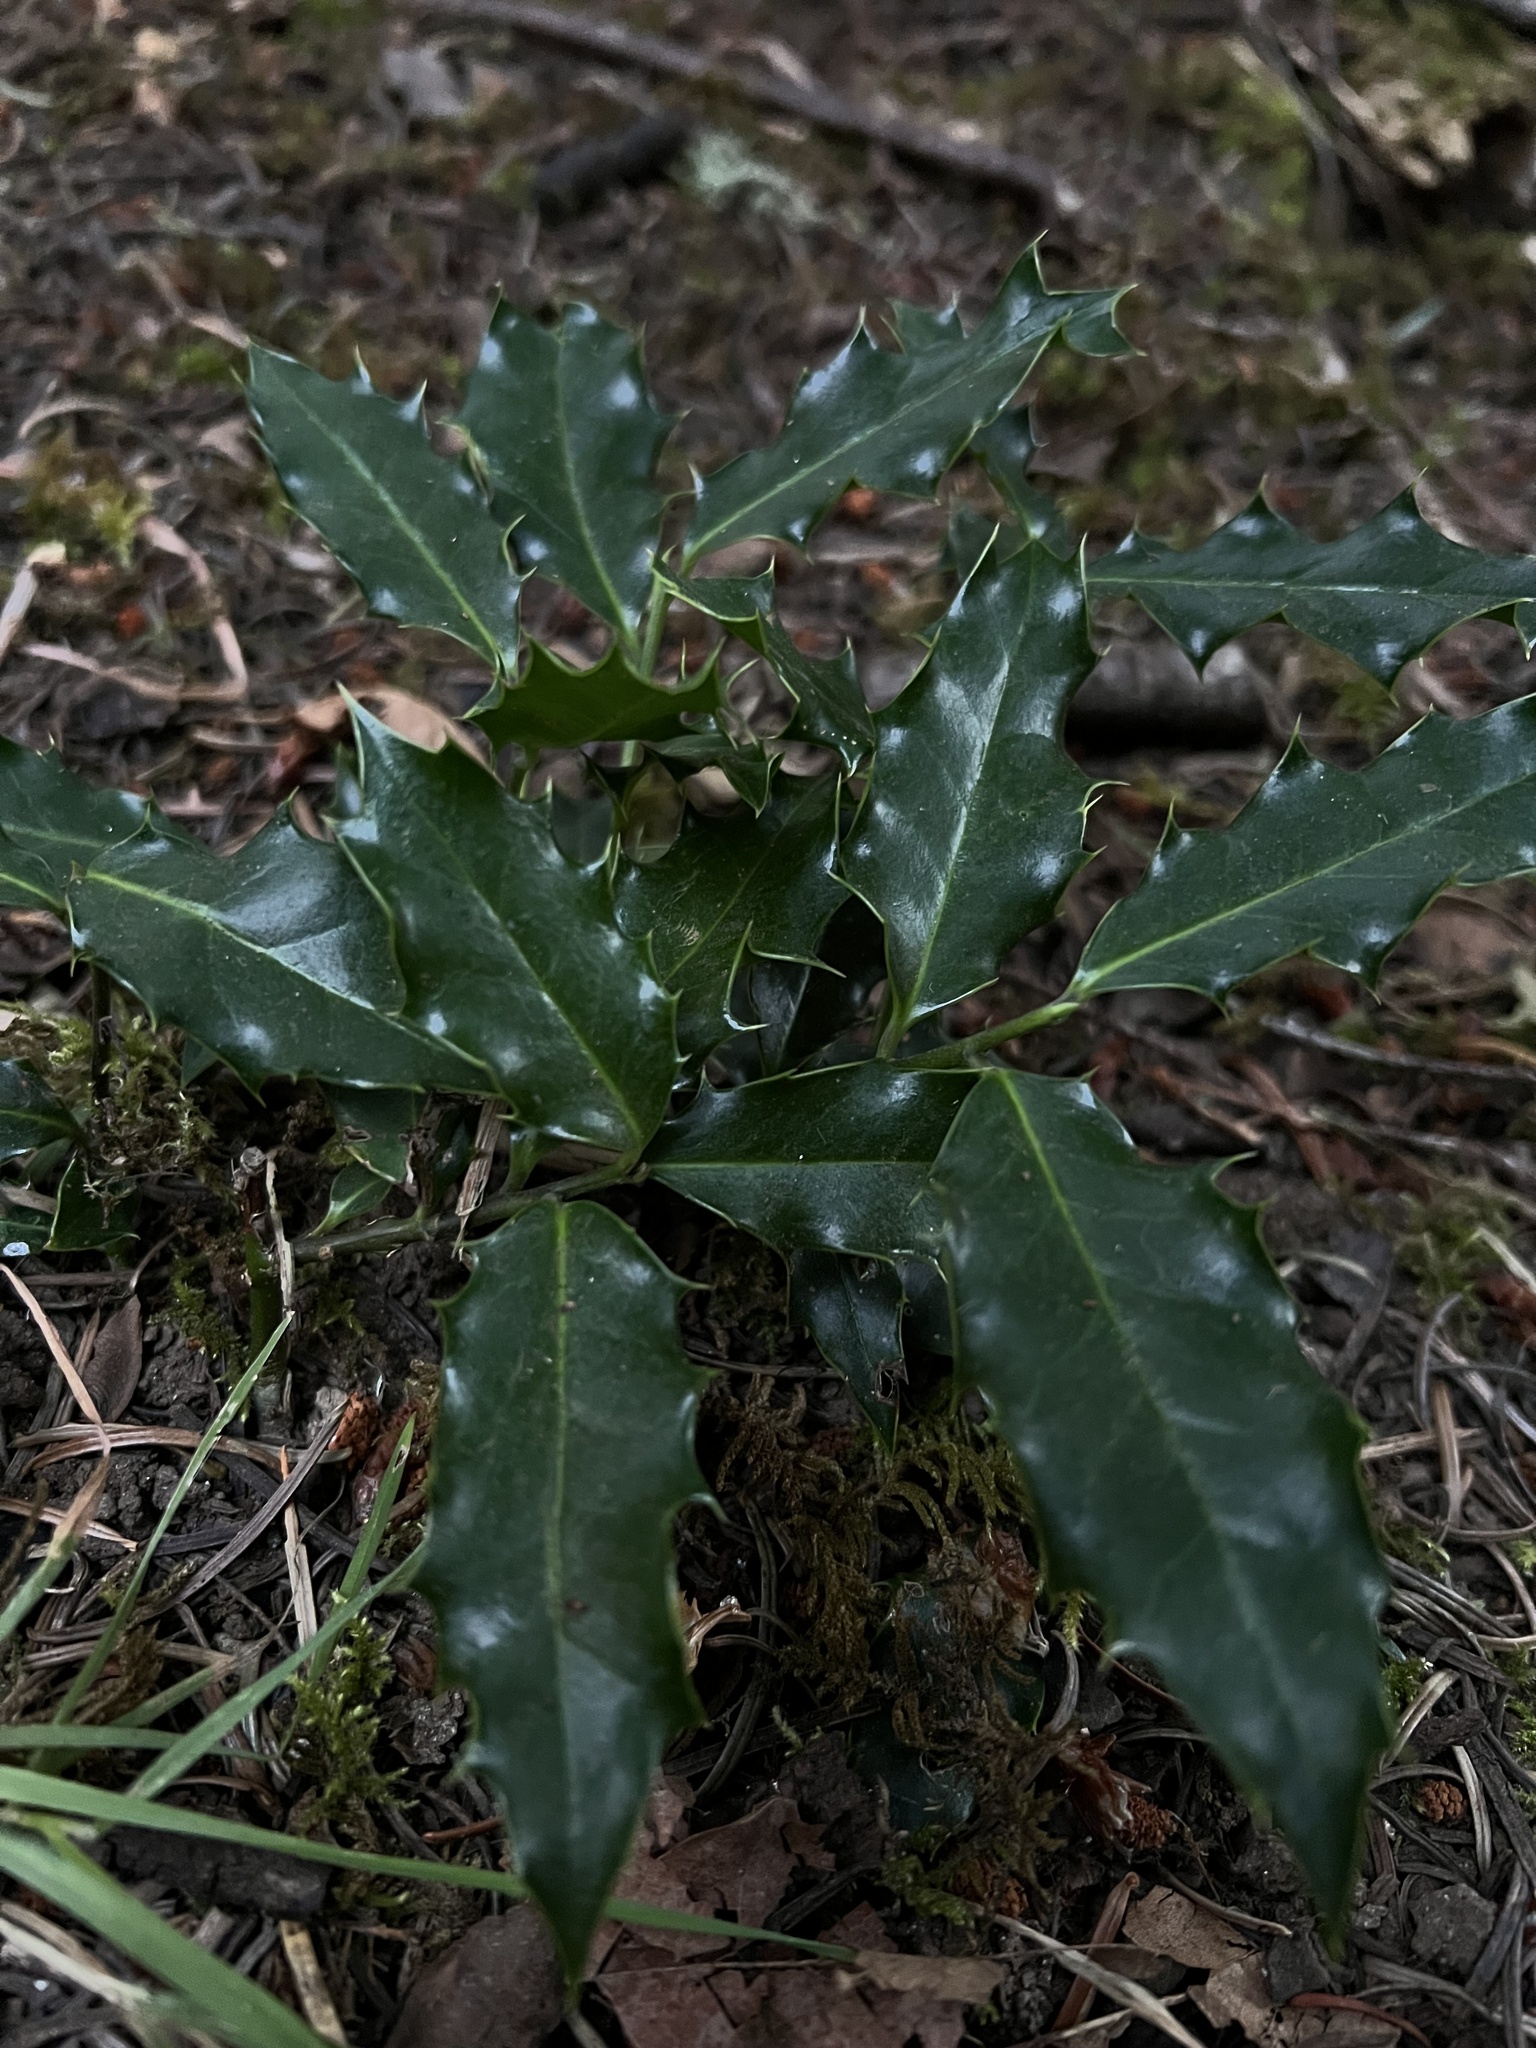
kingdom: Plantae
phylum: Tracheophyta
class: Magnoliopsida
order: Aquifoliales
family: Aquifoliaceae
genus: Ilex
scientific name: Ilex aquifolium
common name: English holly
